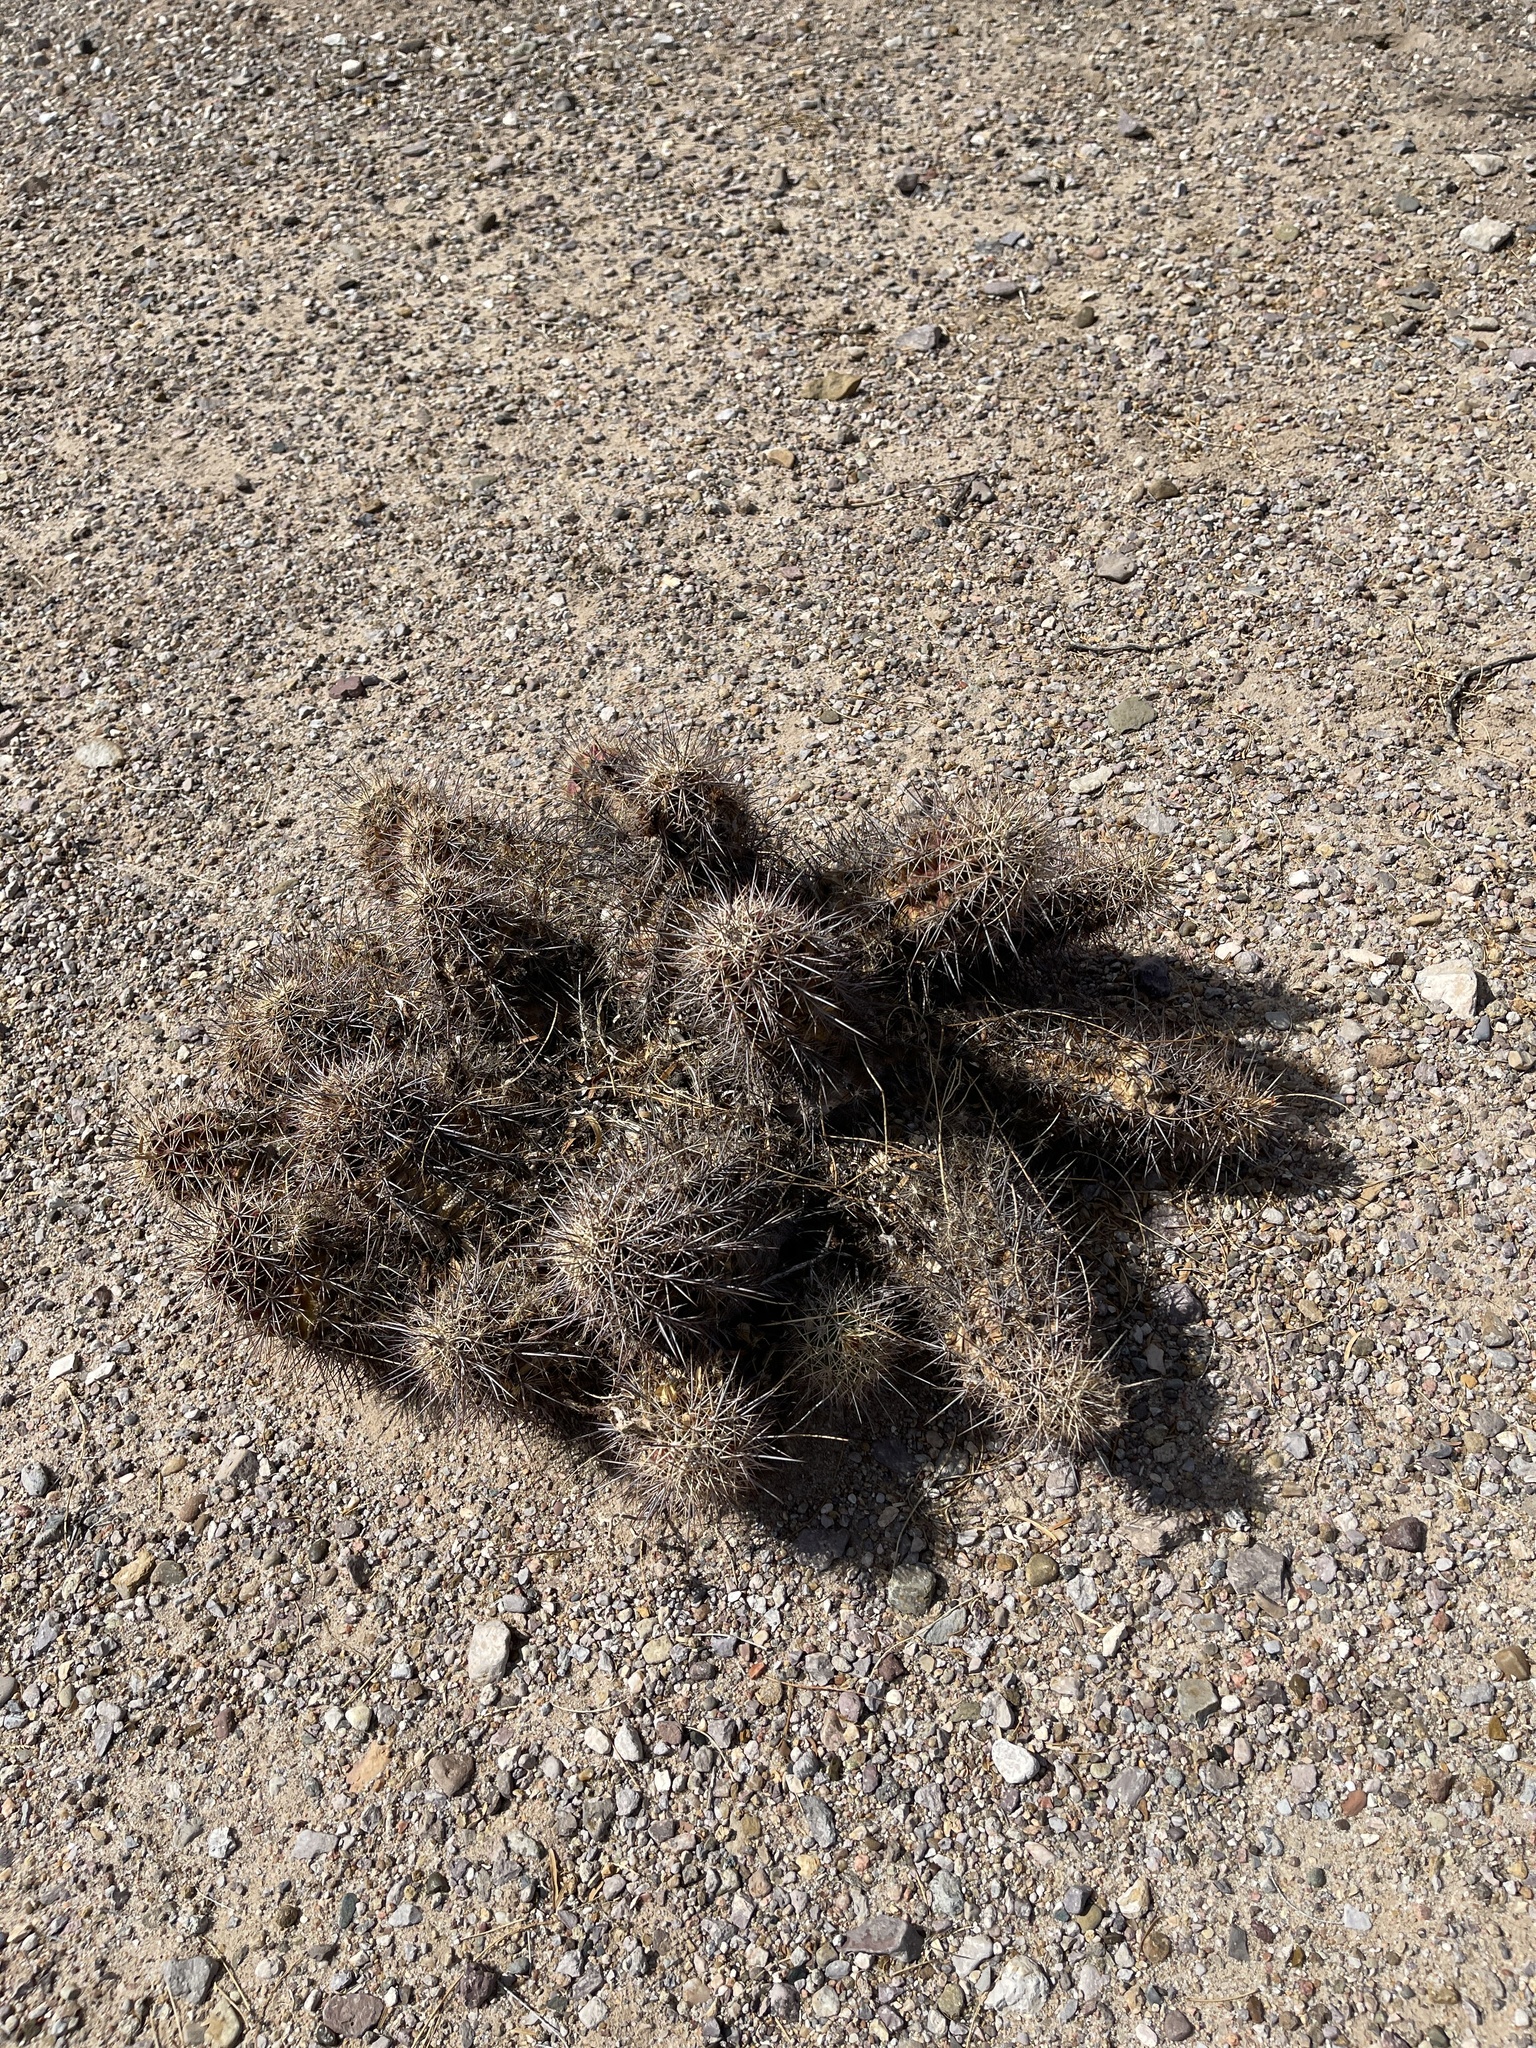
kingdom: Plantae
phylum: Tracheophyta
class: Magnoliopsida
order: Caryophyllales
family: Cactaceae
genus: Echinocereus
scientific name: Echinocereus coccineus
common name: Scarlet hedgehog cactus
